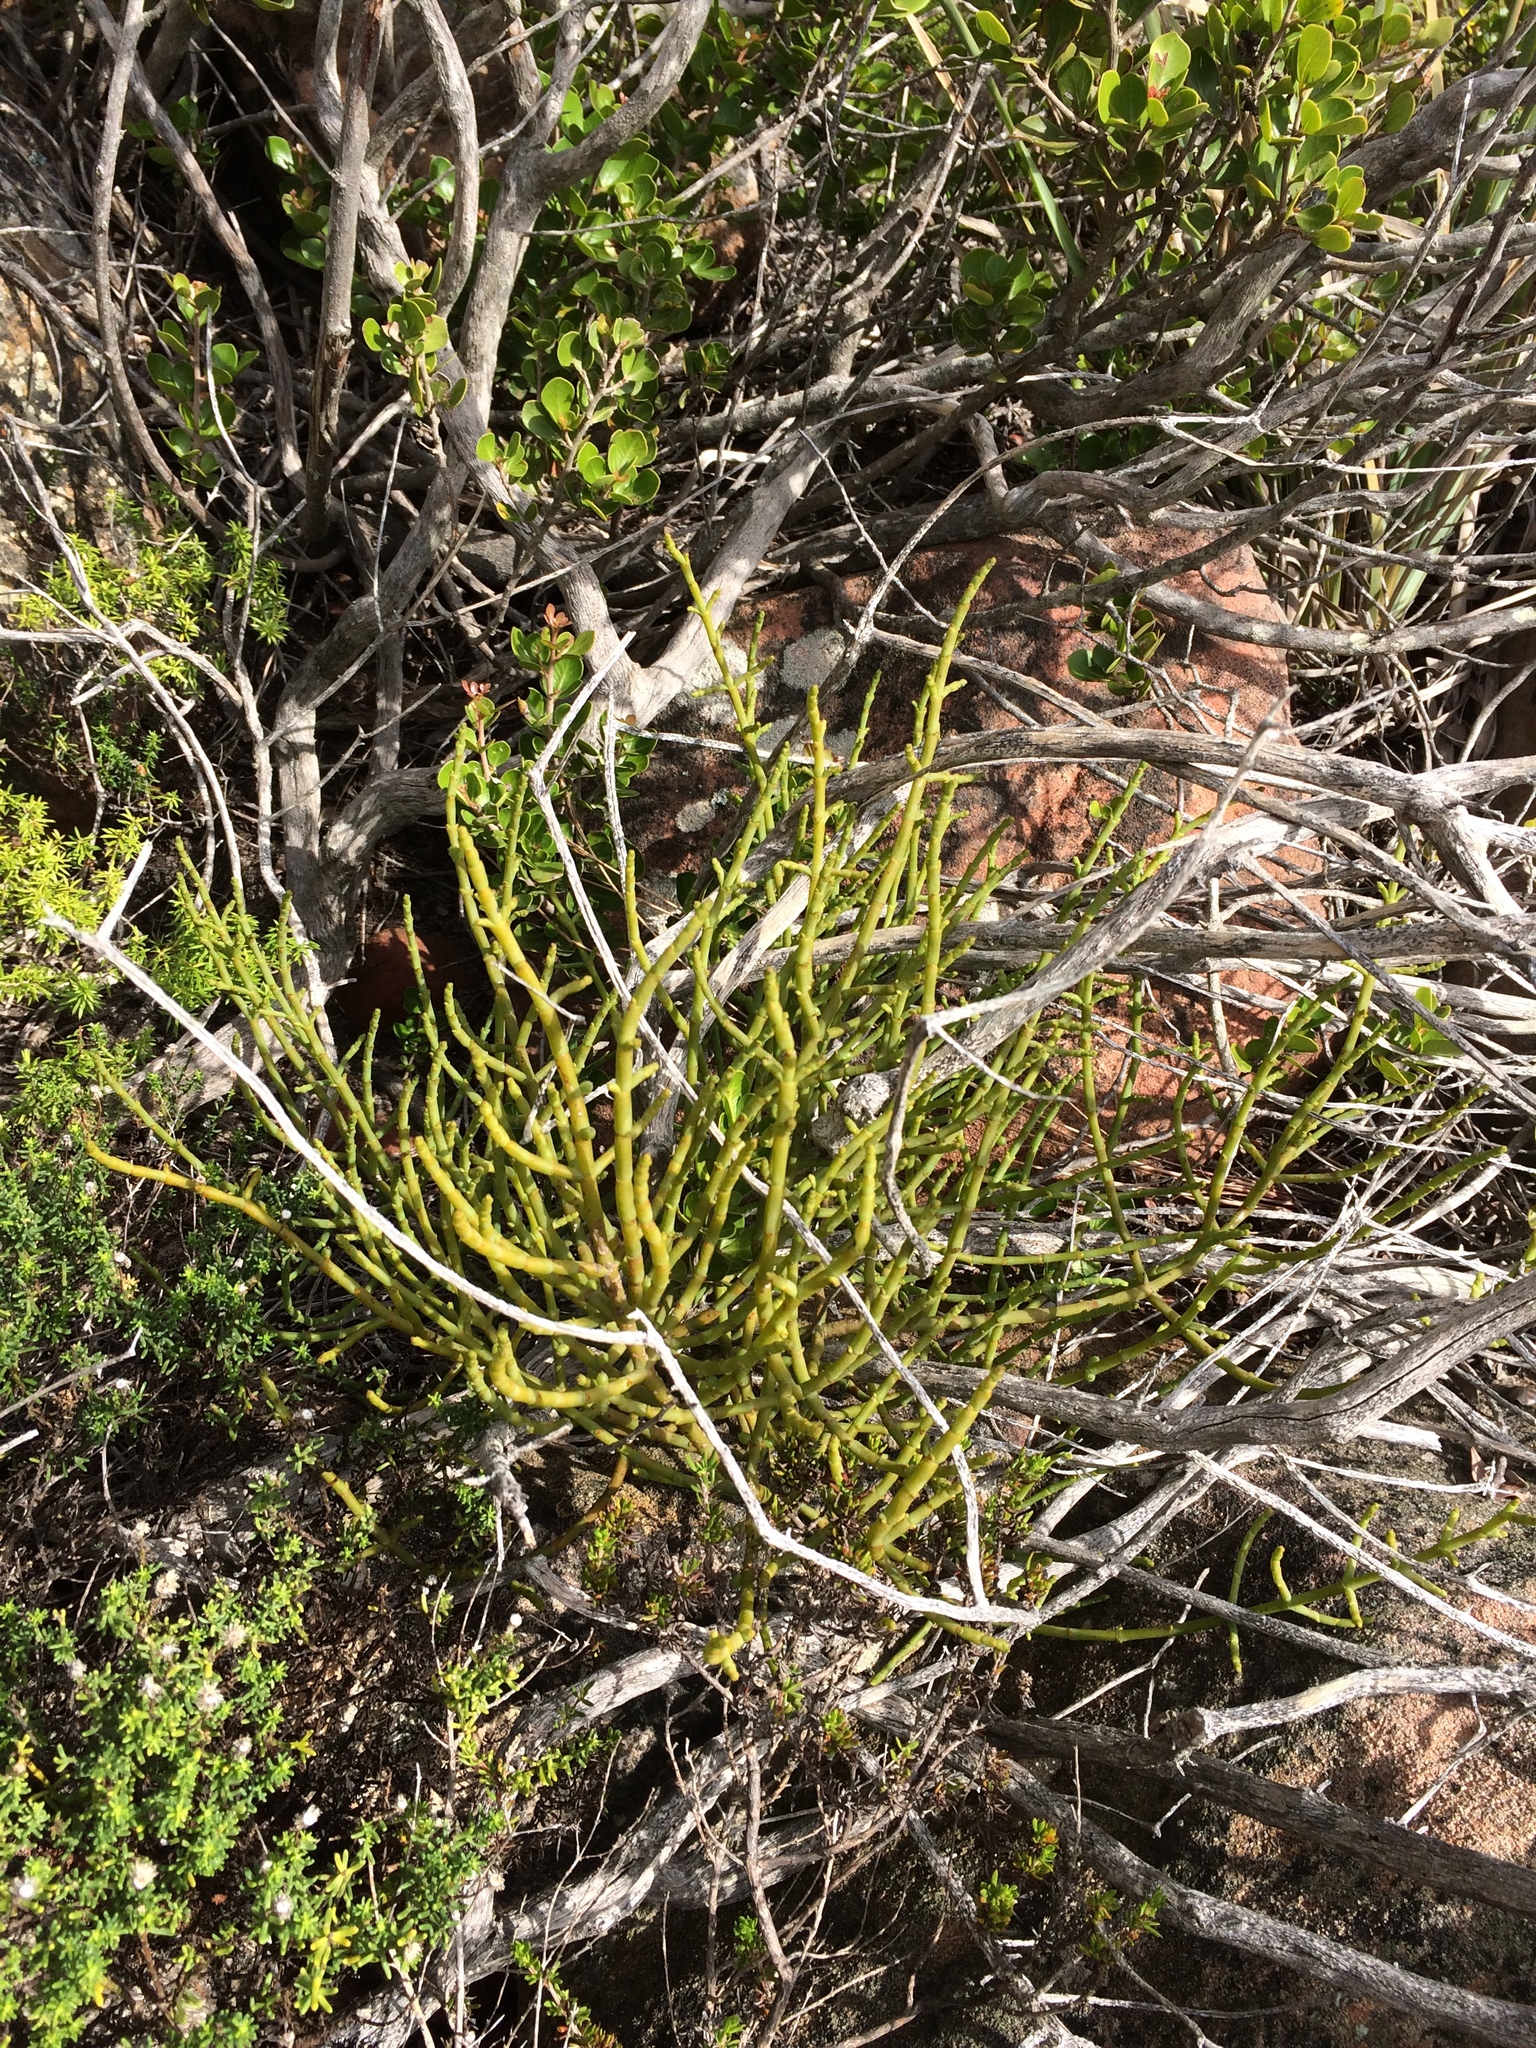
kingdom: Plantae
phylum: Tracheophyta
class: Magnoliopsida
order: Santalales
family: Viscaceae
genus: Viscum
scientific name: Viscum capense
